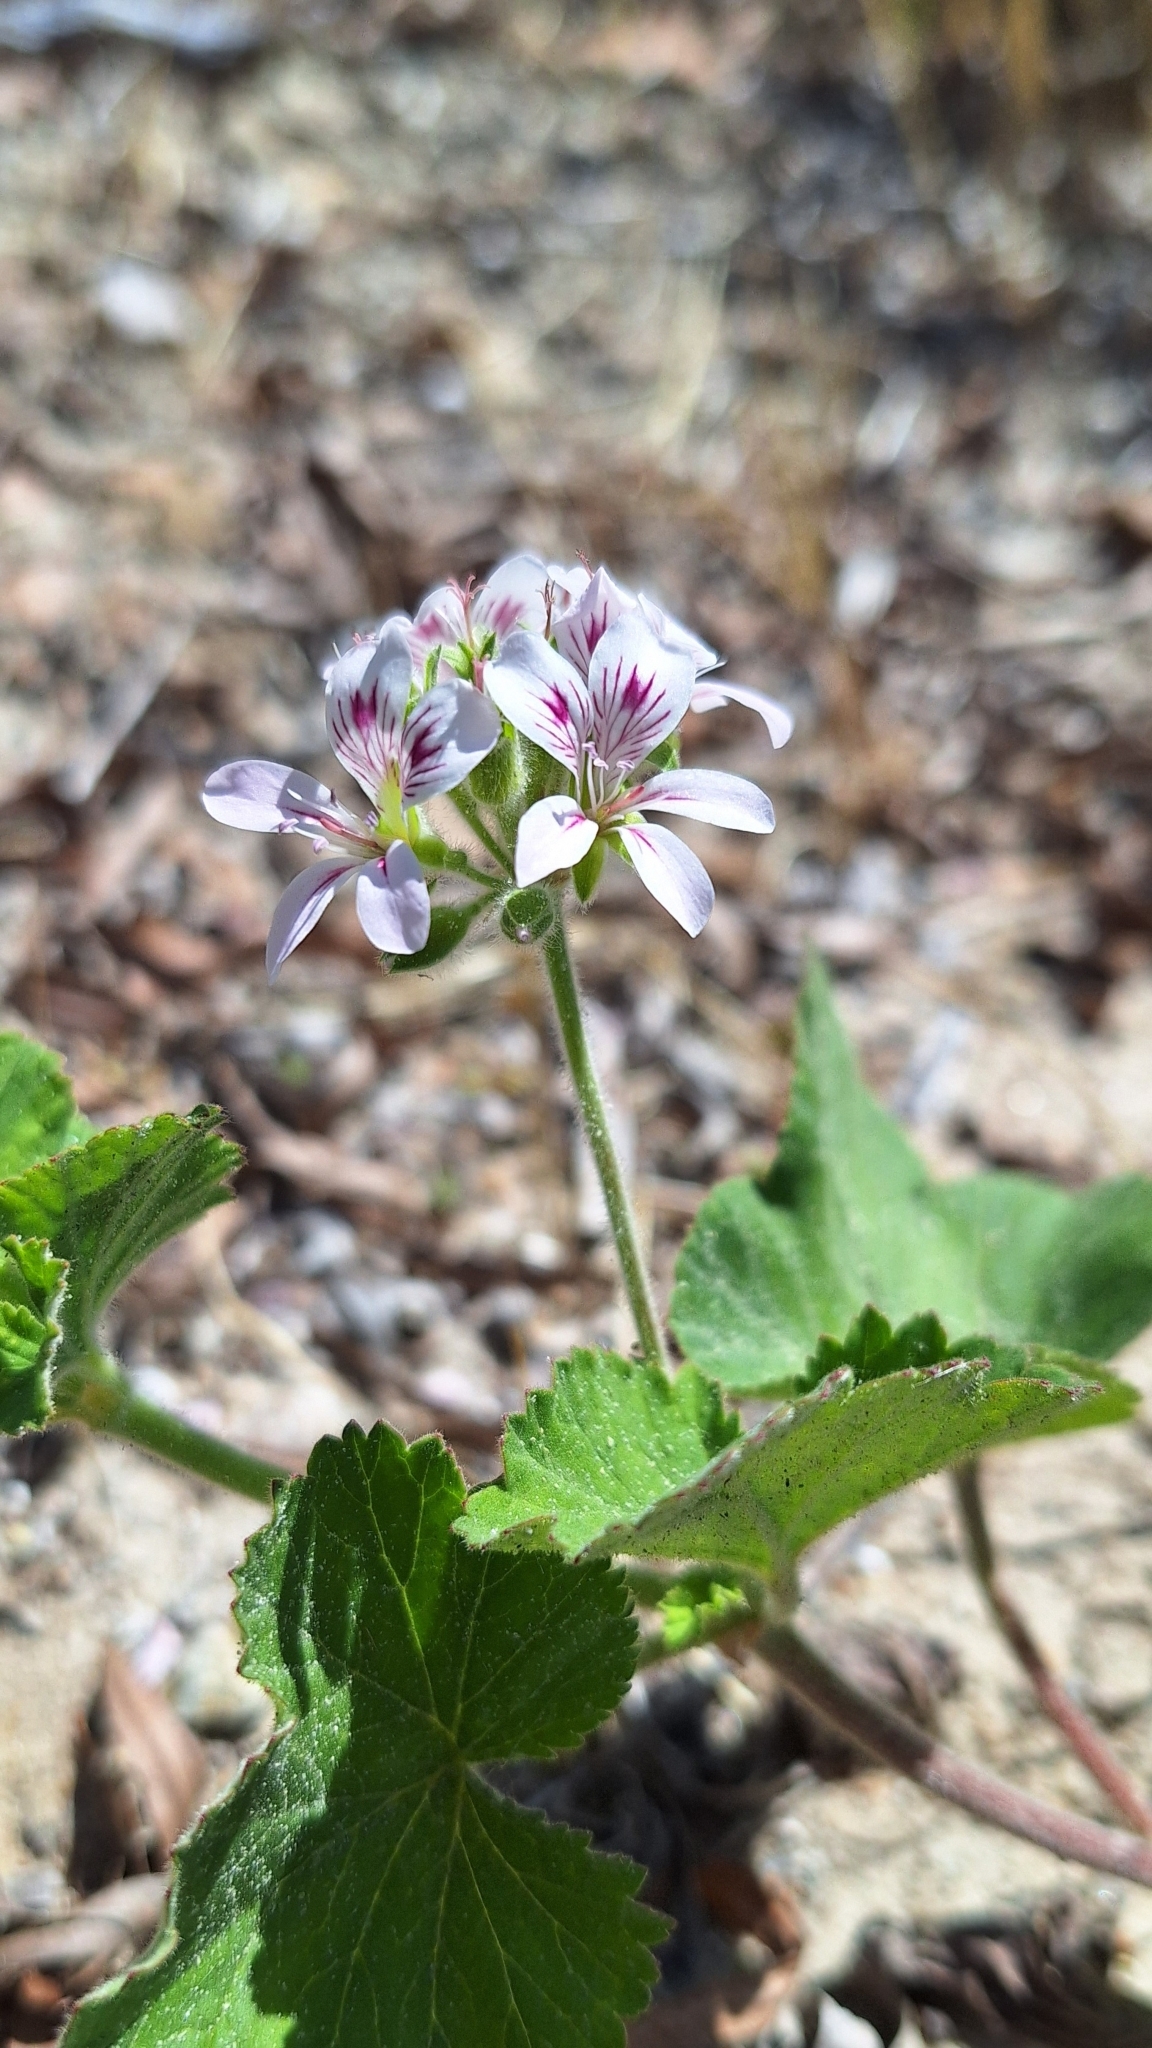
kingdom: Plantae
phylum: Tracheophyta
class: Magnoliopsida
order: Geraniales
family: Geraniaceae
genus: Pelargonium
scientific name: Pelargonium australe
